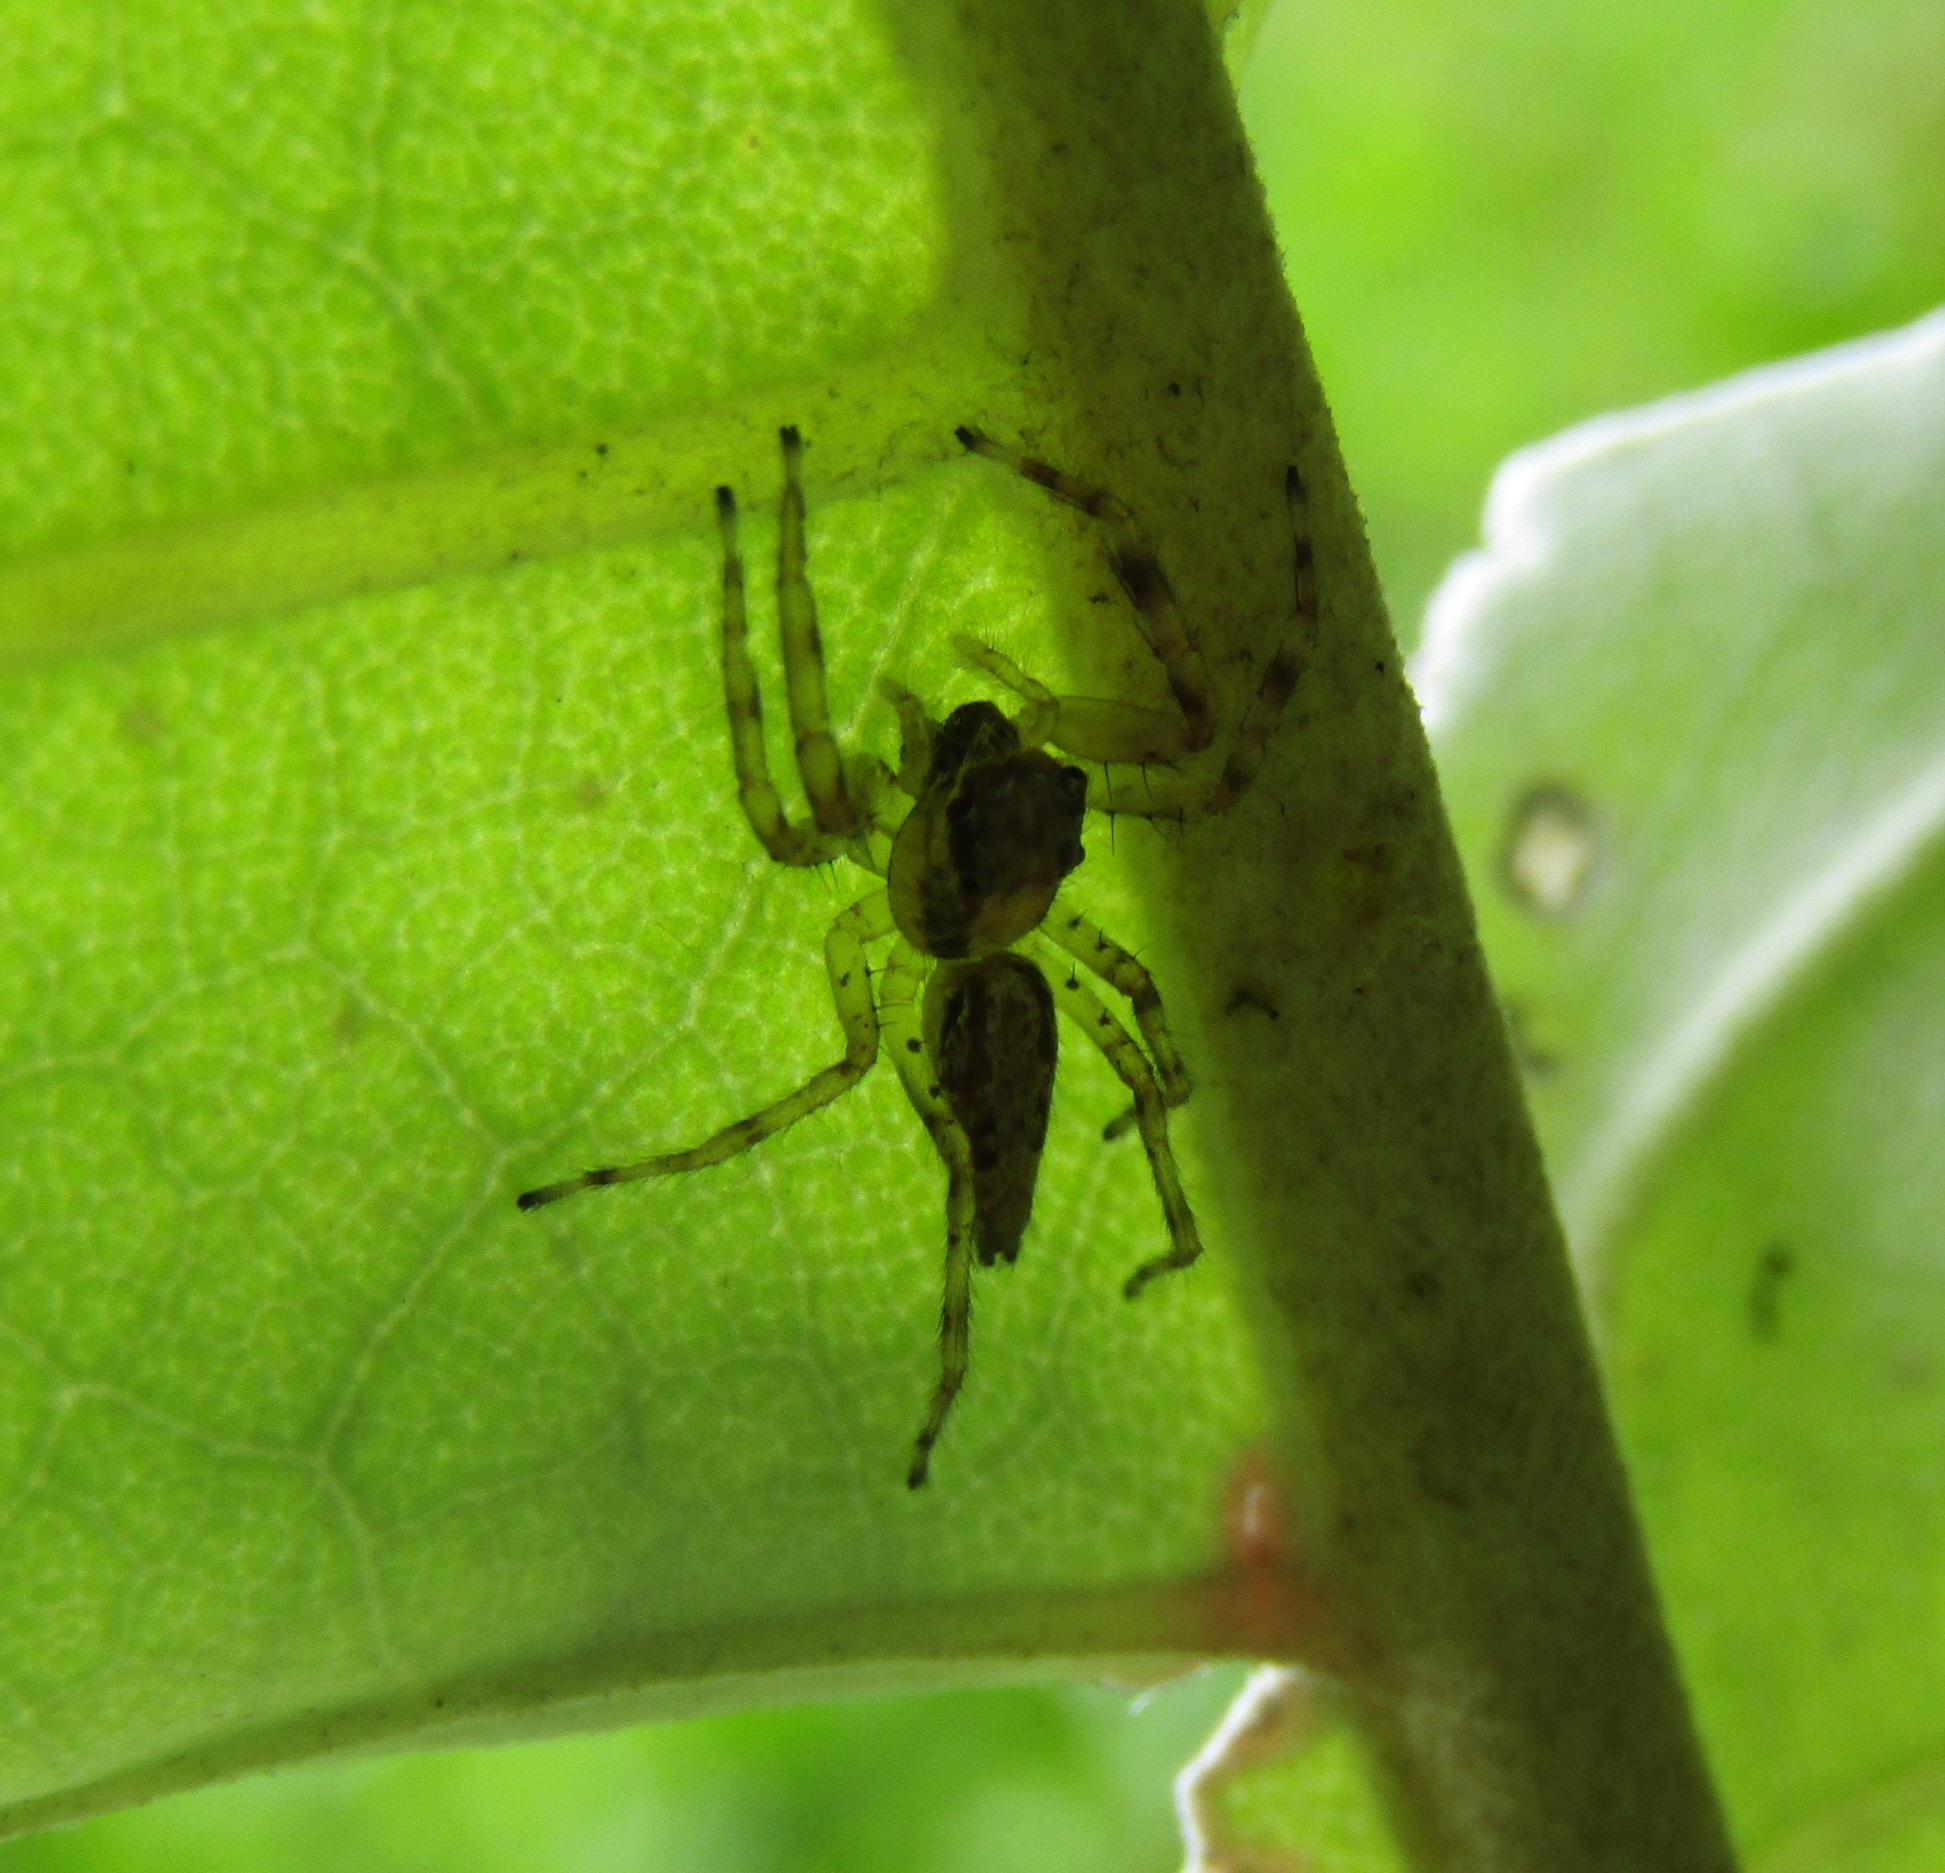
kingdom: Animalia
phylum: Arthropoda
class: Arachnida
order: Araneae
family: Salticidae
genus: Helpis
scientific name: Helpis minitabunda
